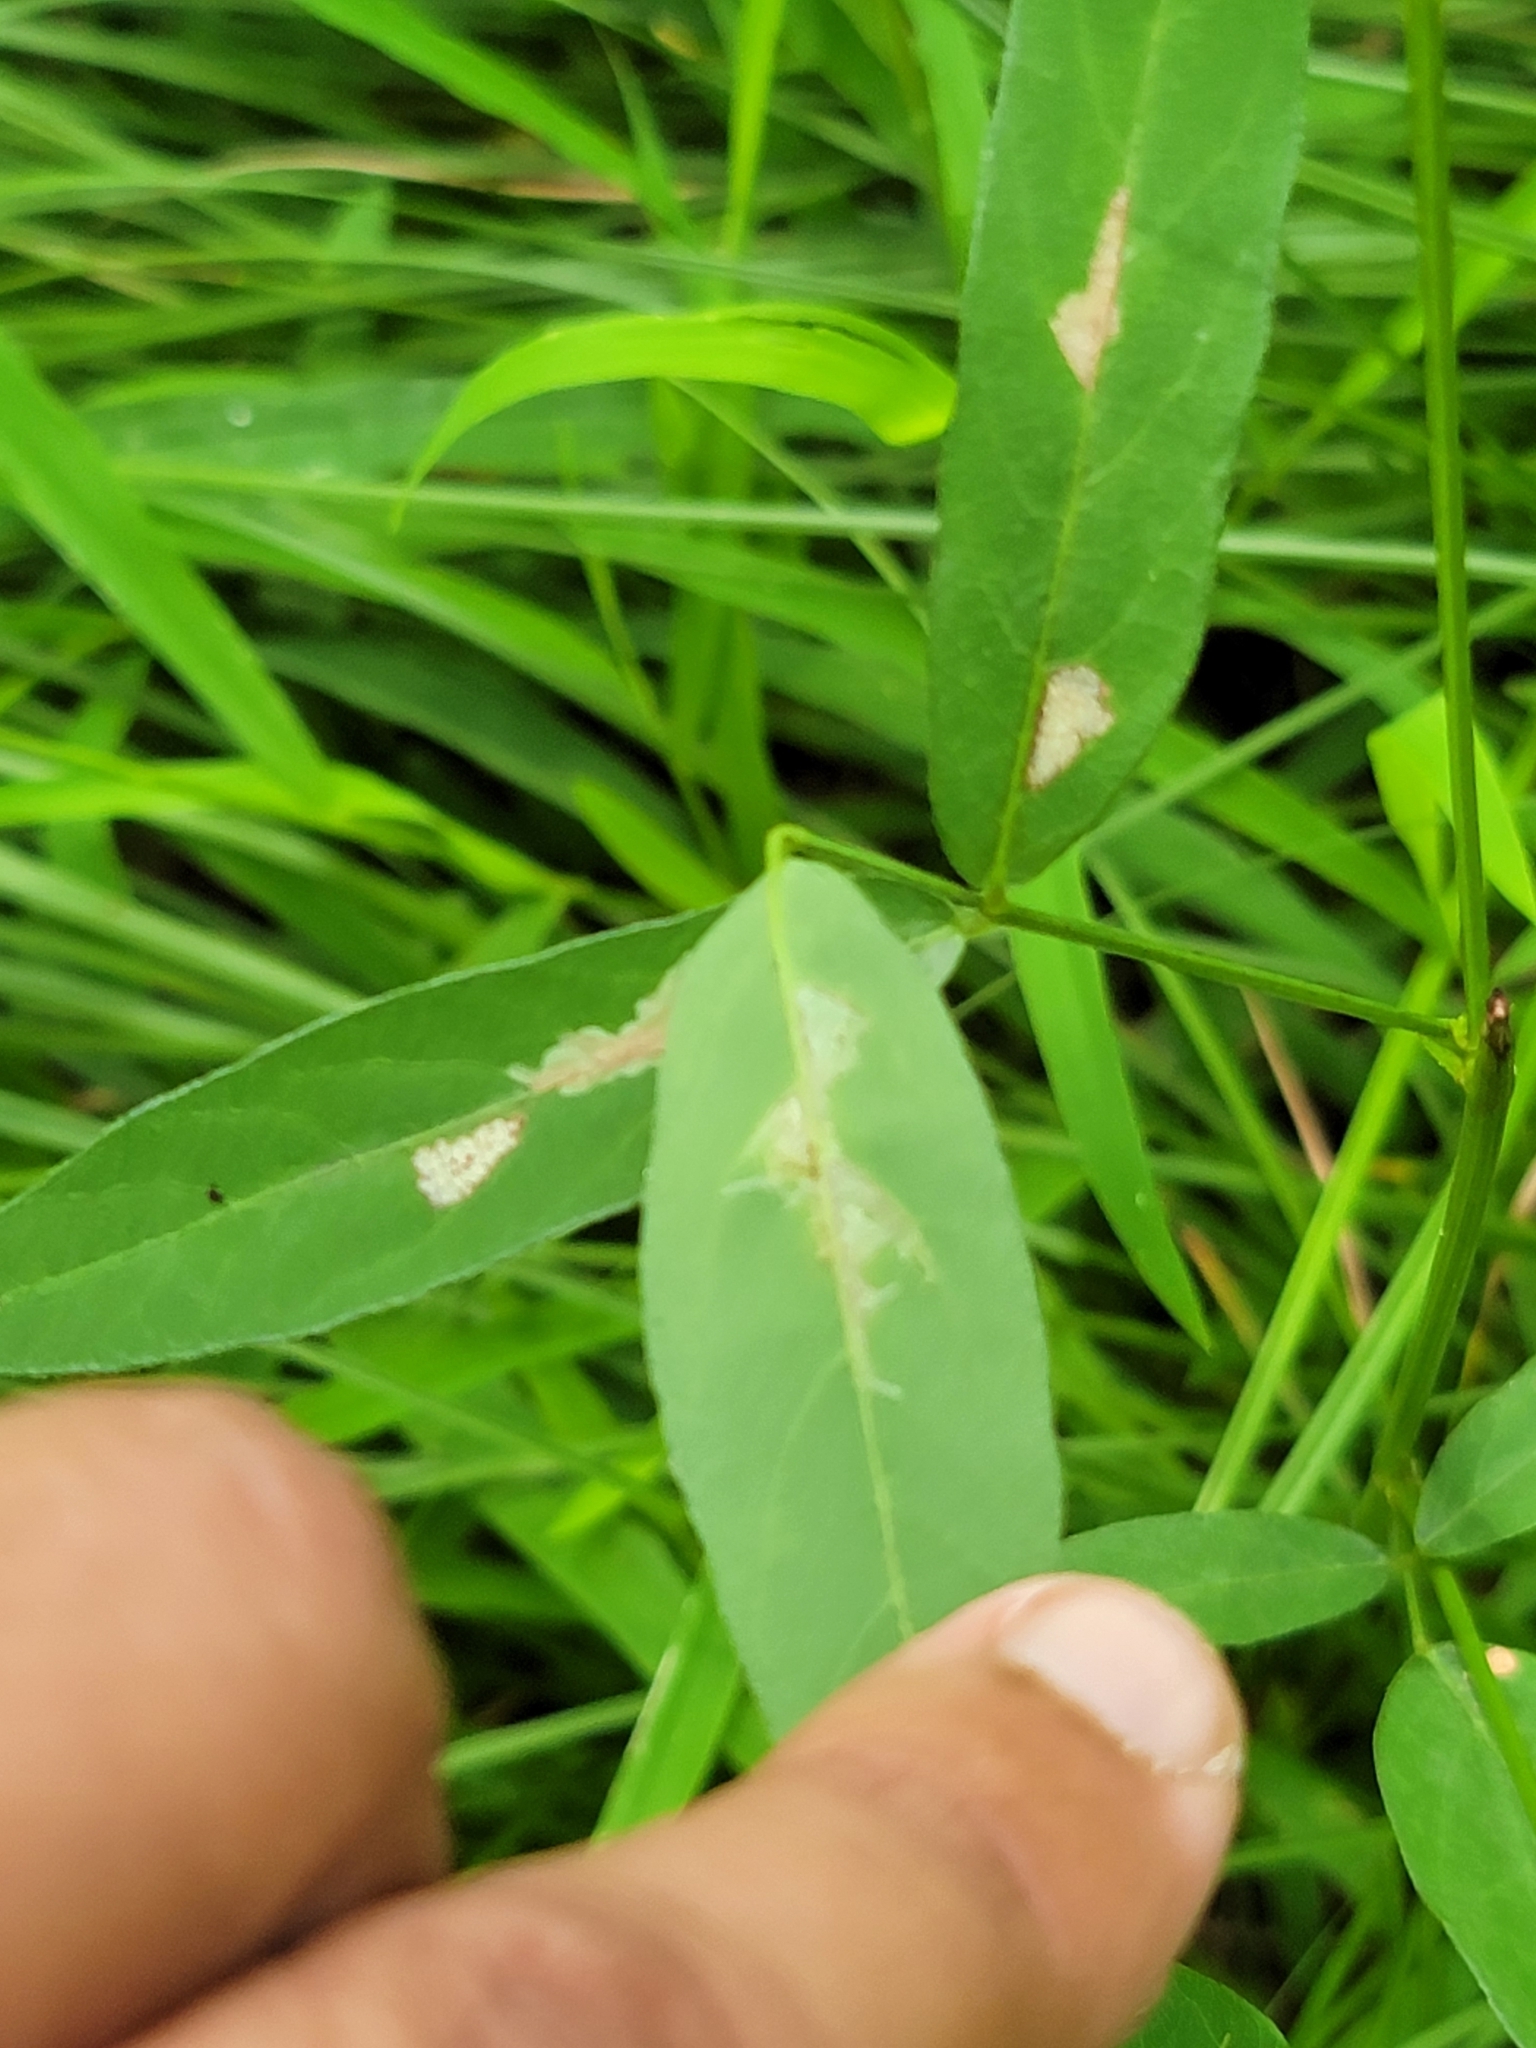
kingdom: Animalia
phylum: Arthropoda
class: Insecta
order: Lepidoptera
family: Gracillariidae
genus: Parectopa
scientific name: Parectopa robiniella
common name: Locust digitate leafminer
